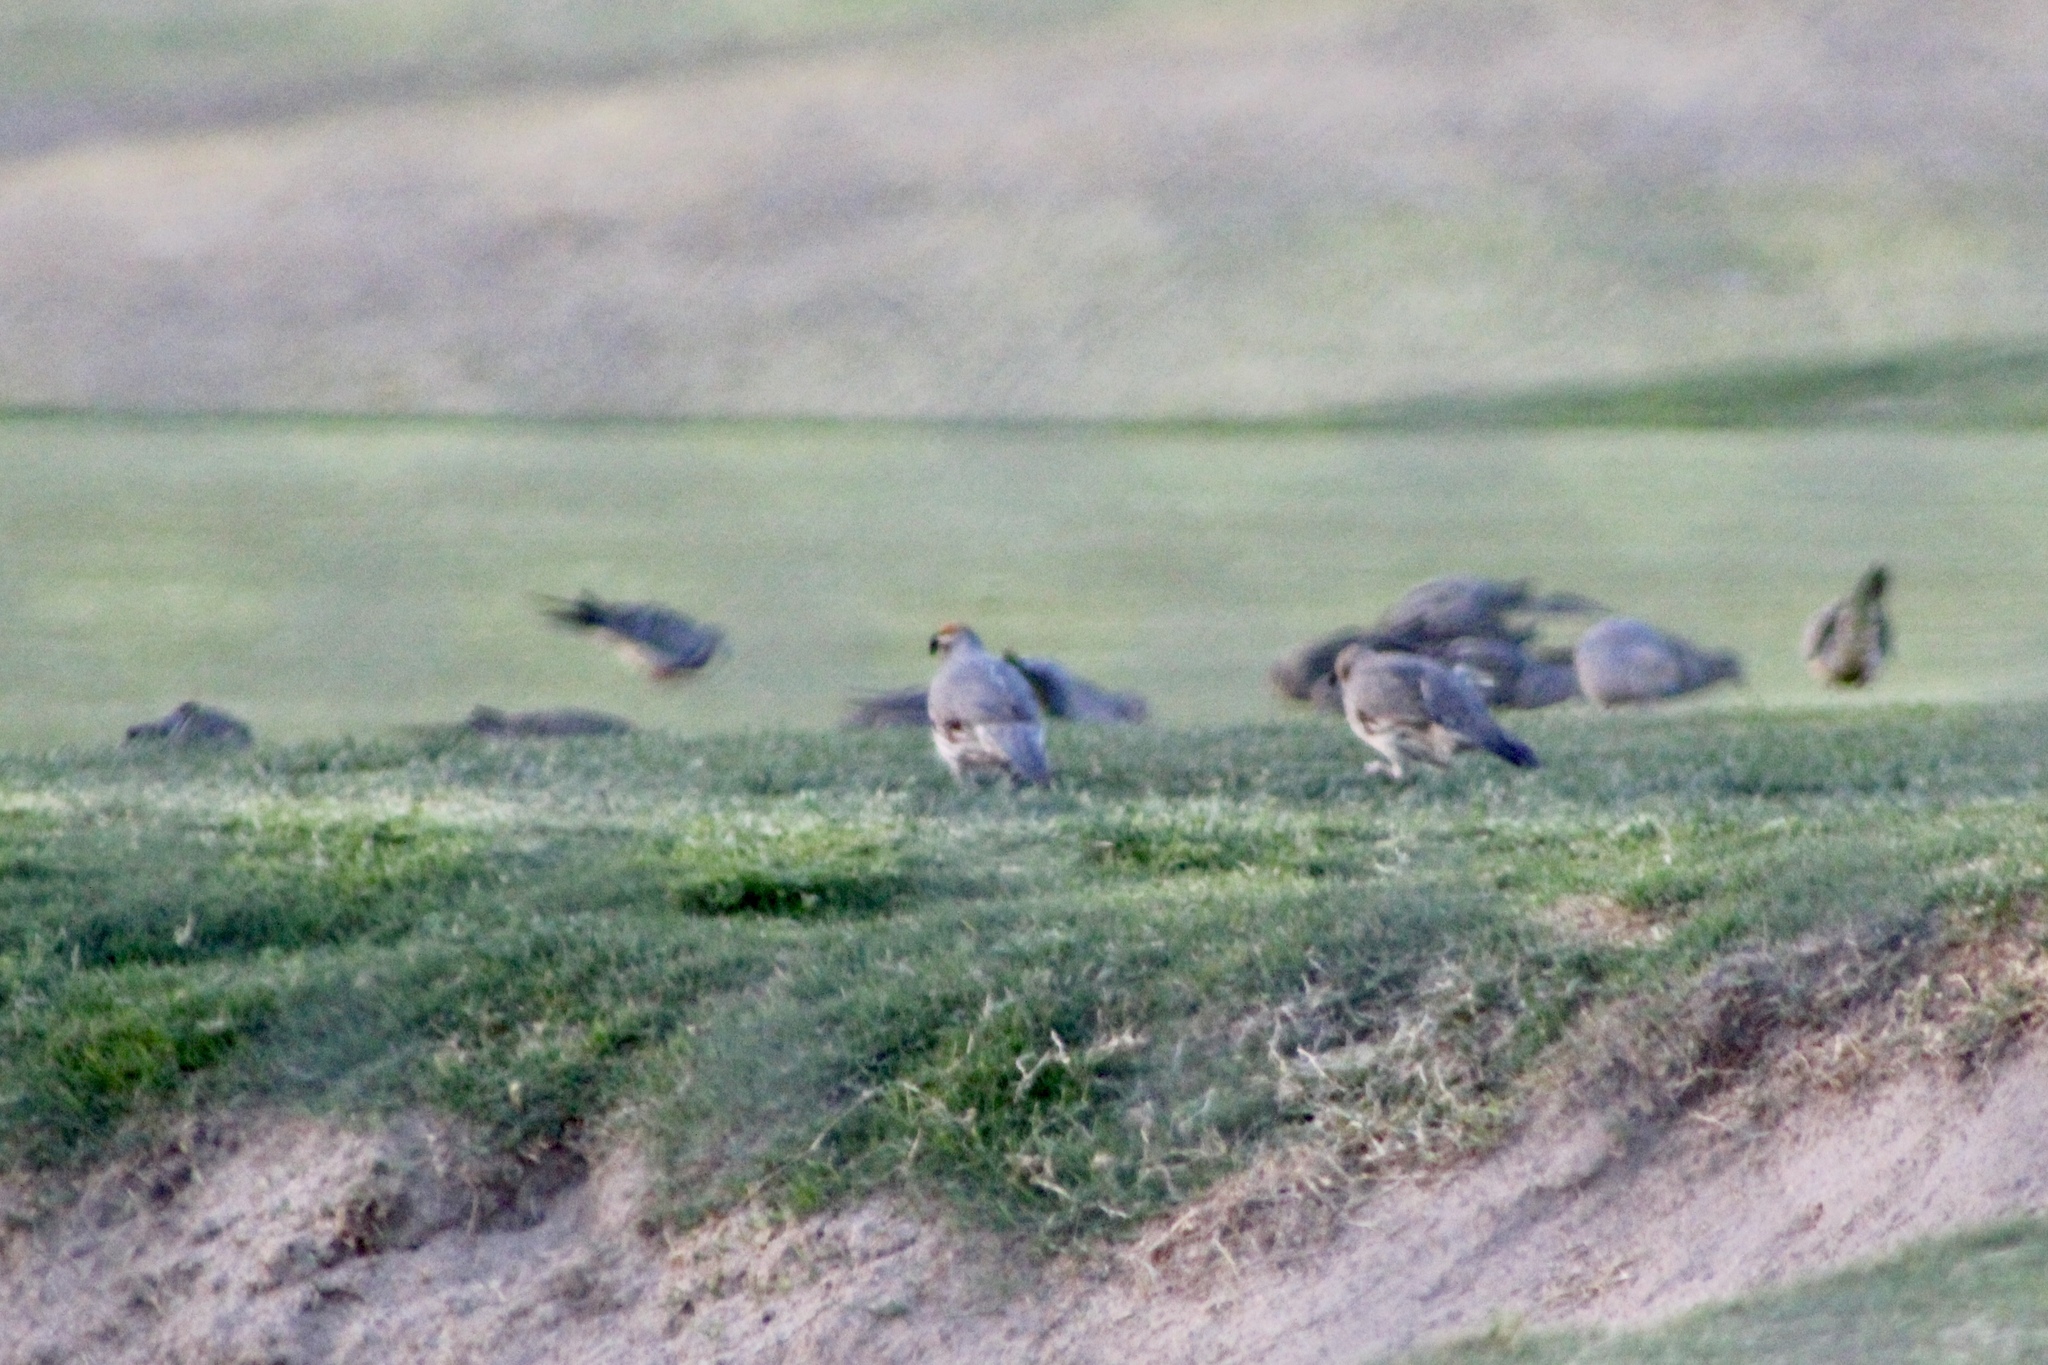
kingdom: Animalia
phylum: Chordata
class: Aves
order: Columbiformes
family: Columbidae
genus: Zenaida
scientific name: Zenaida macroura
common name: Mourning dove
